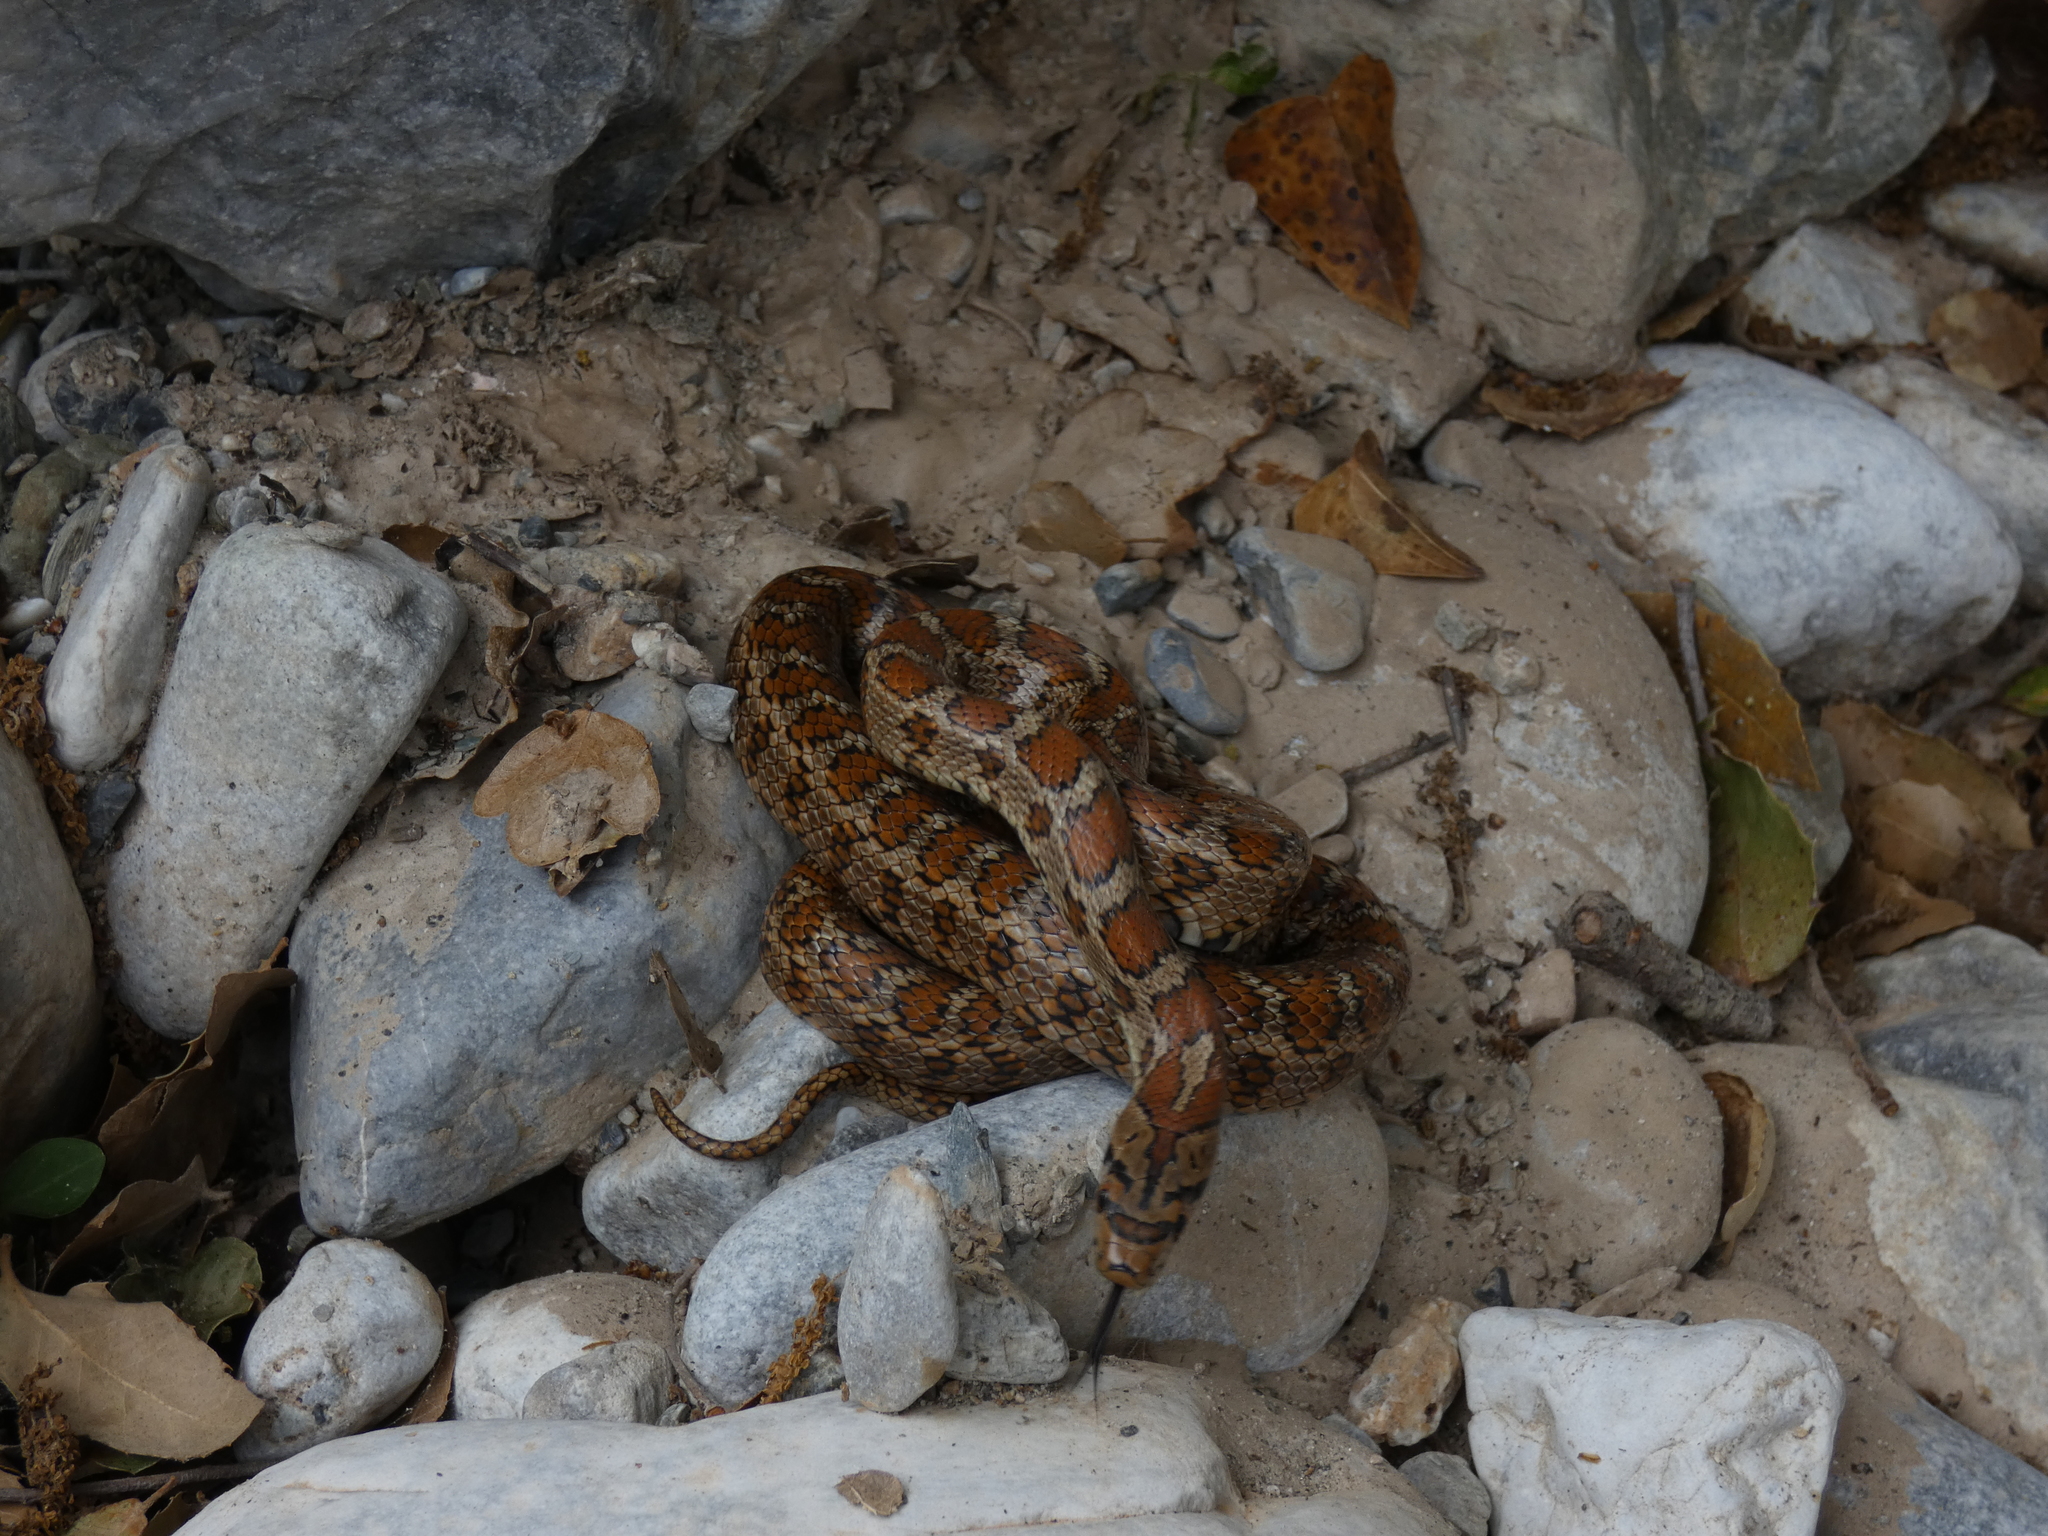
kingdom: Animalia
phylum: Chordata
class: Squamata
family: Colubridae
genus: Zamenis
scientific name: Zamenis situla
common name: European ratsnake
